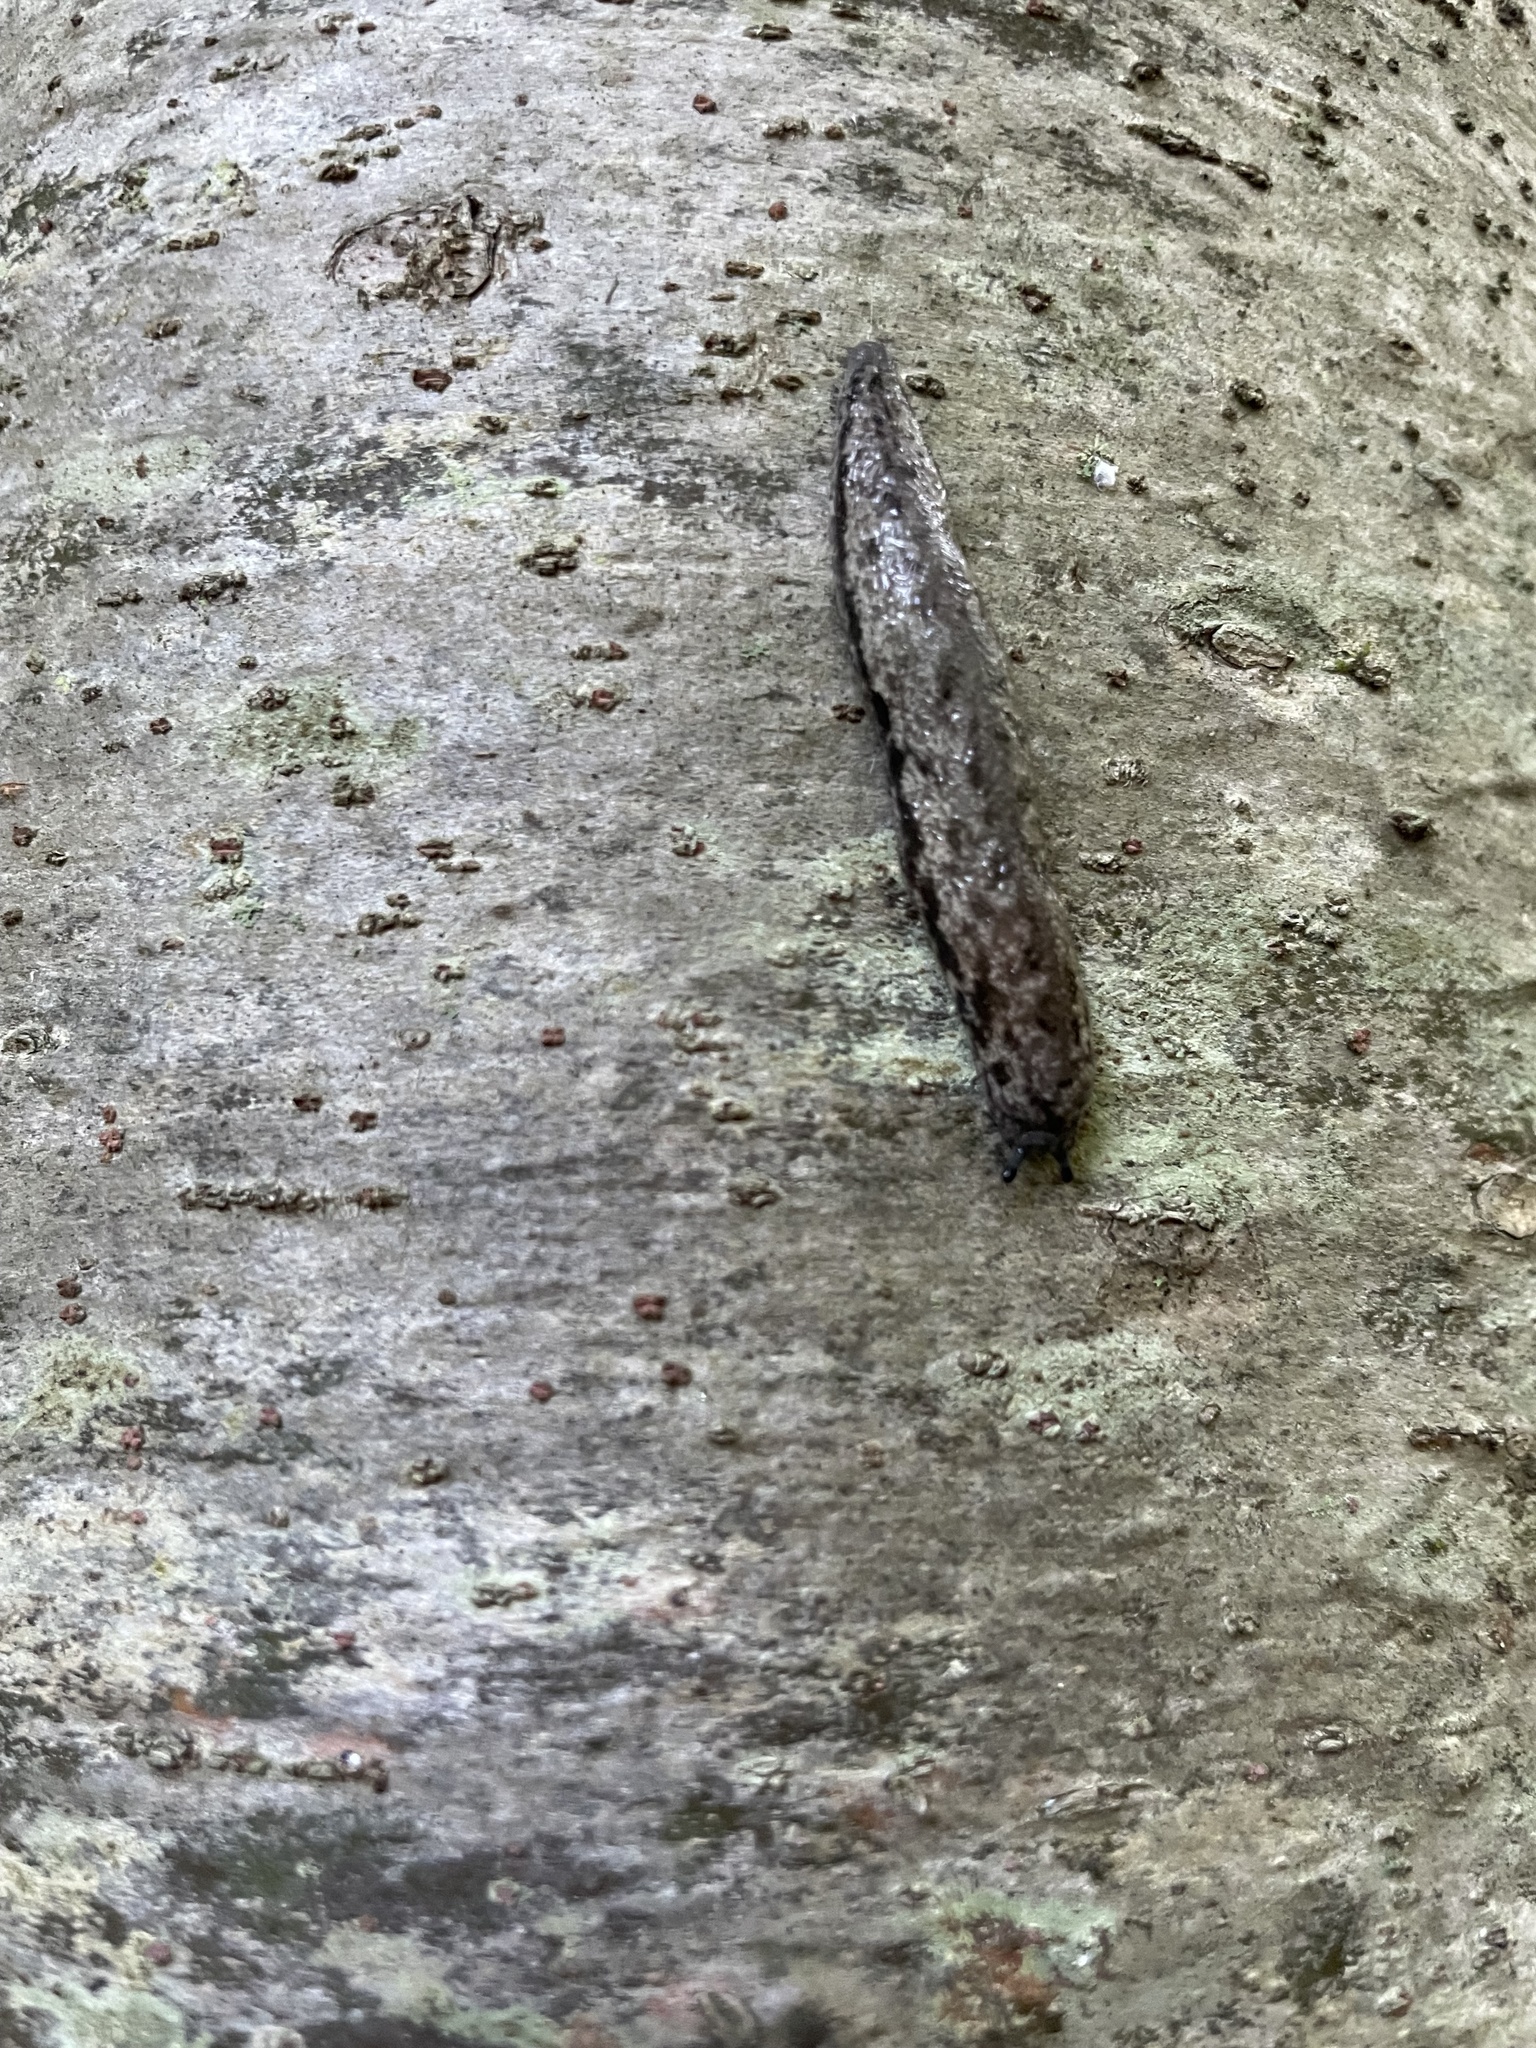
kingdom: Animalia
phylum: Mollusca
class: Gastropoda
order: Stylommatophora
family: Philomycidae
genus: Megapallifera
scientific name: Megapallifera mutabilis
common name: Changeable mantleslug
